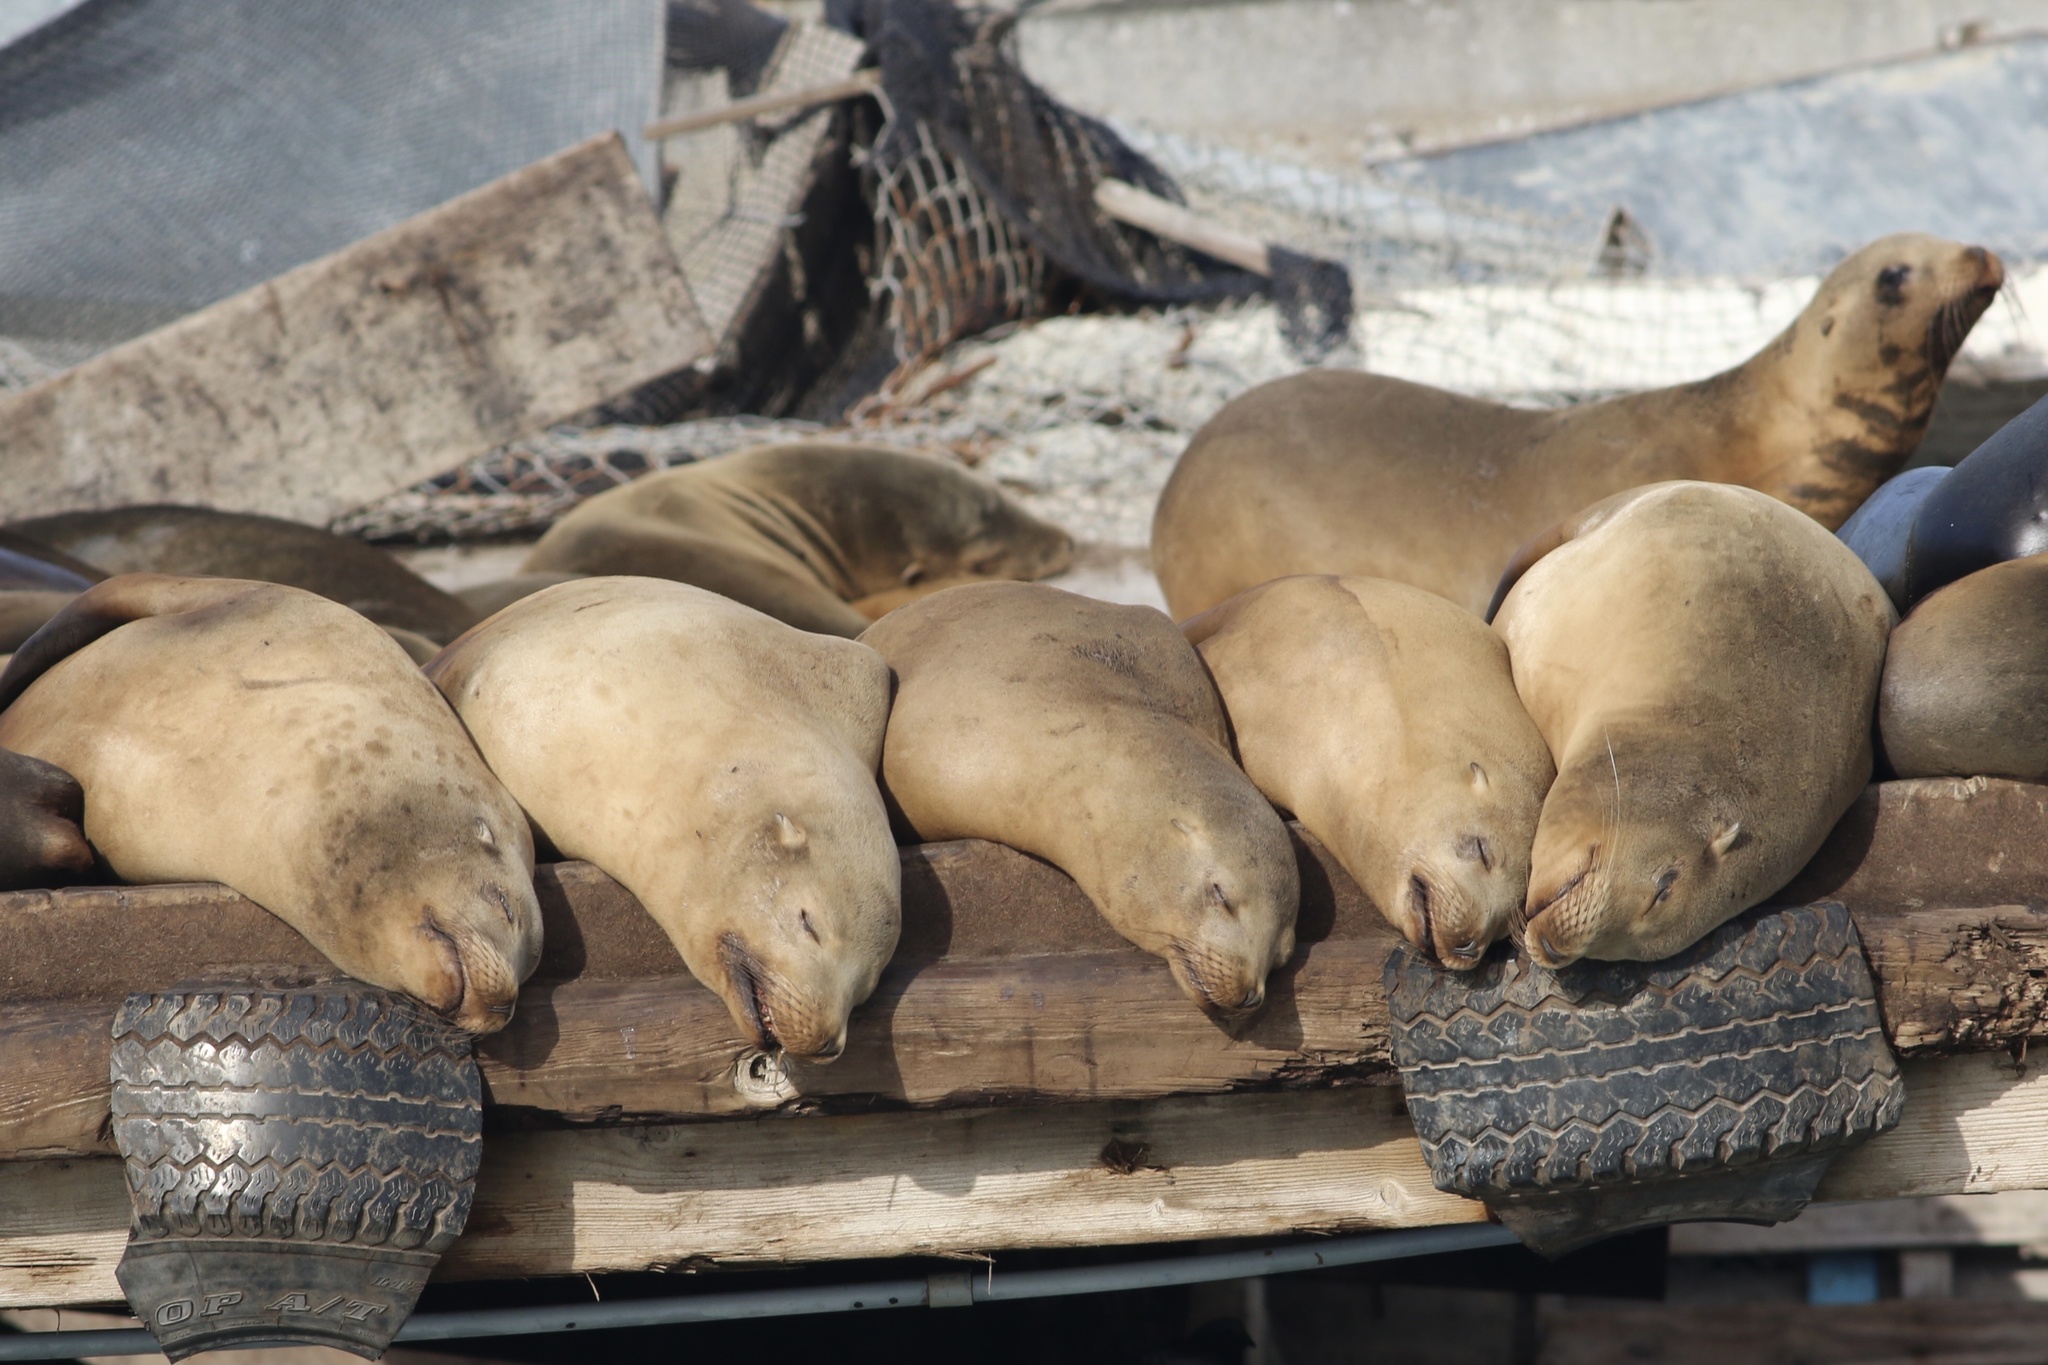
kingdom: Animalia
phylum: Chordata
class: Mammalia
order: Carnivora
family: Otariidae
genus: Zalophus
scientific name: Zalophus californianus
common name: California sea lion
